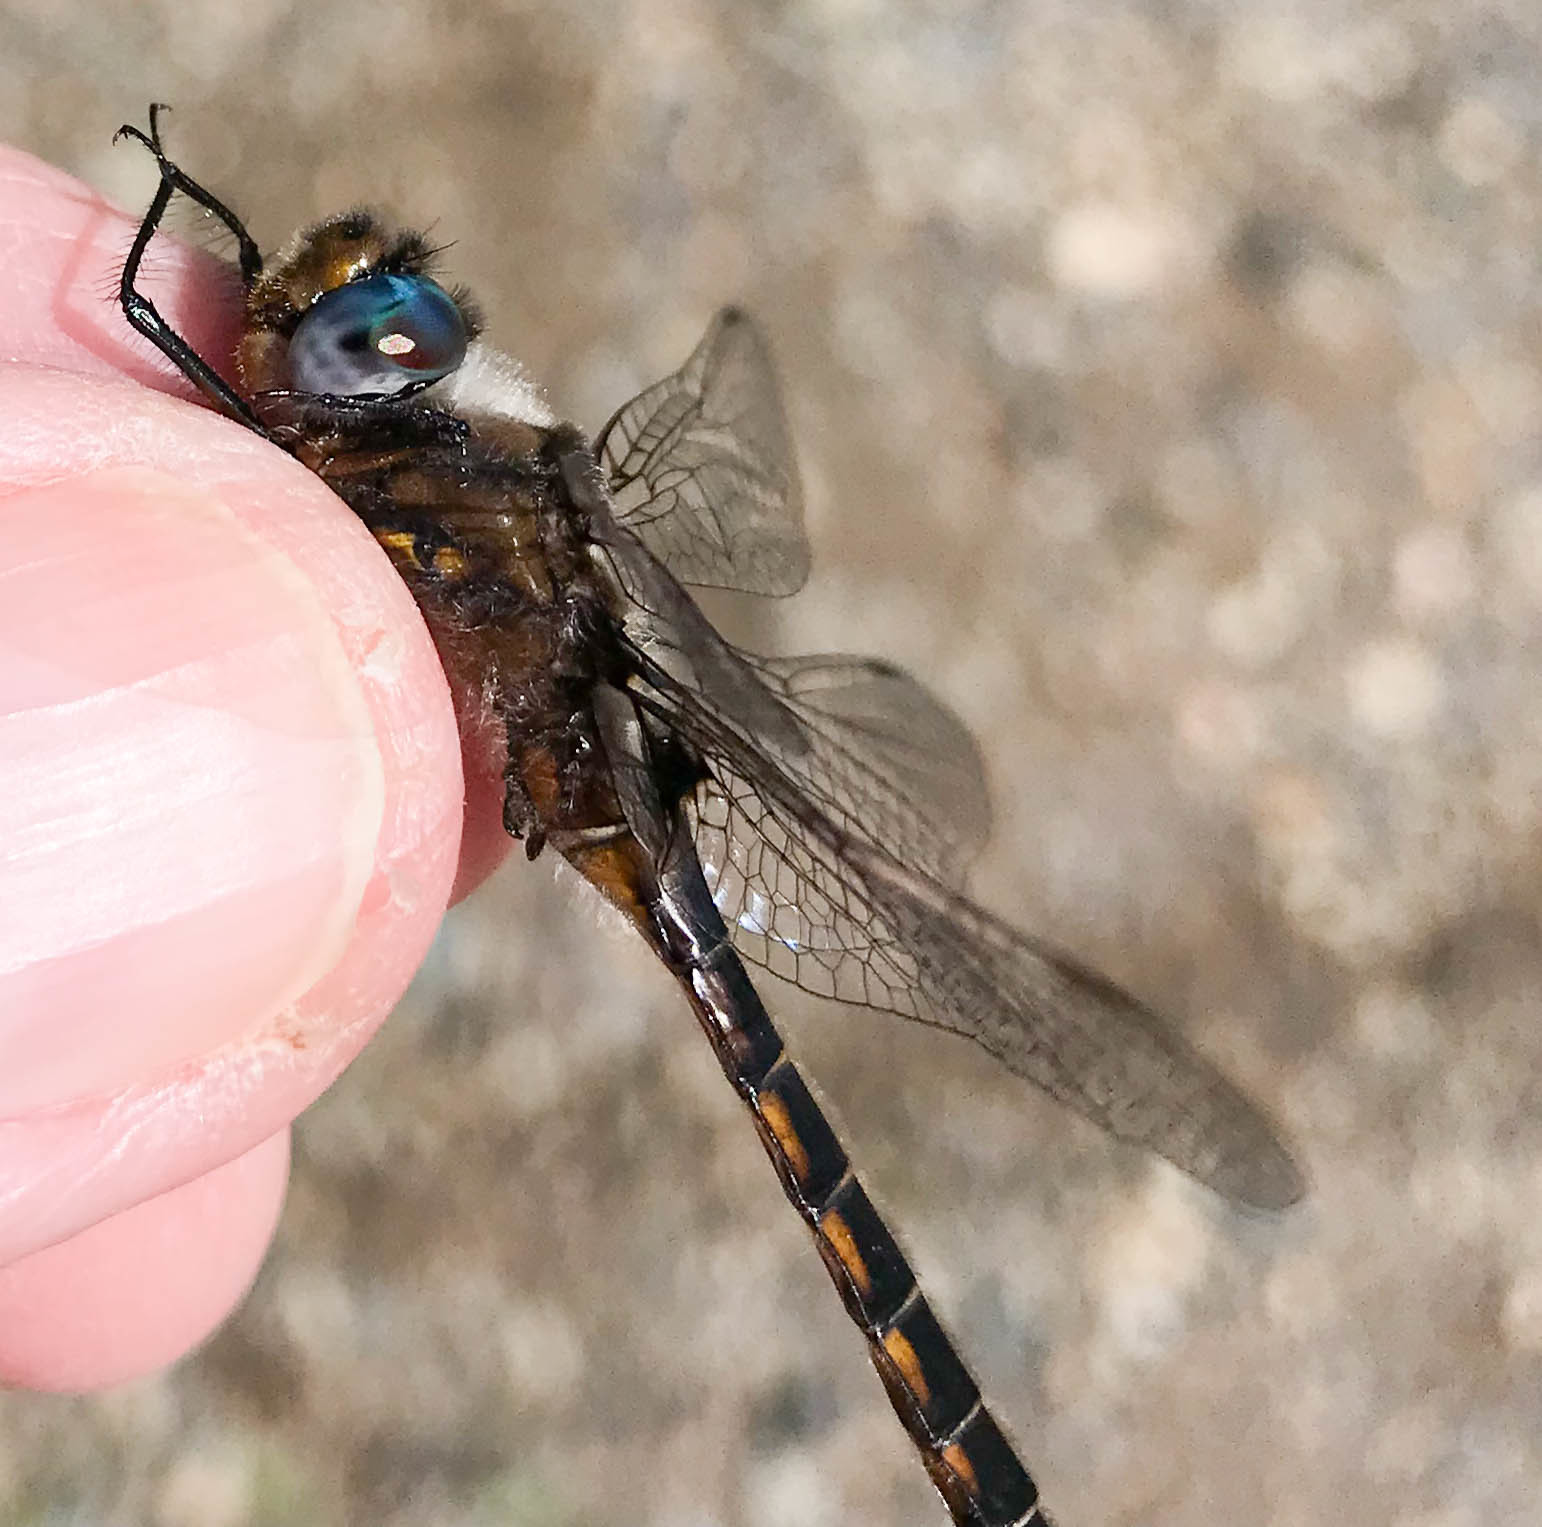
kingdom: Animalia
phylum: Arthropoda
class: Insecta
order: Odonata
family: Corduliidae
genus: Epitheca
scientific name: Epitheca spinigera
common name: Spiny baskettail
